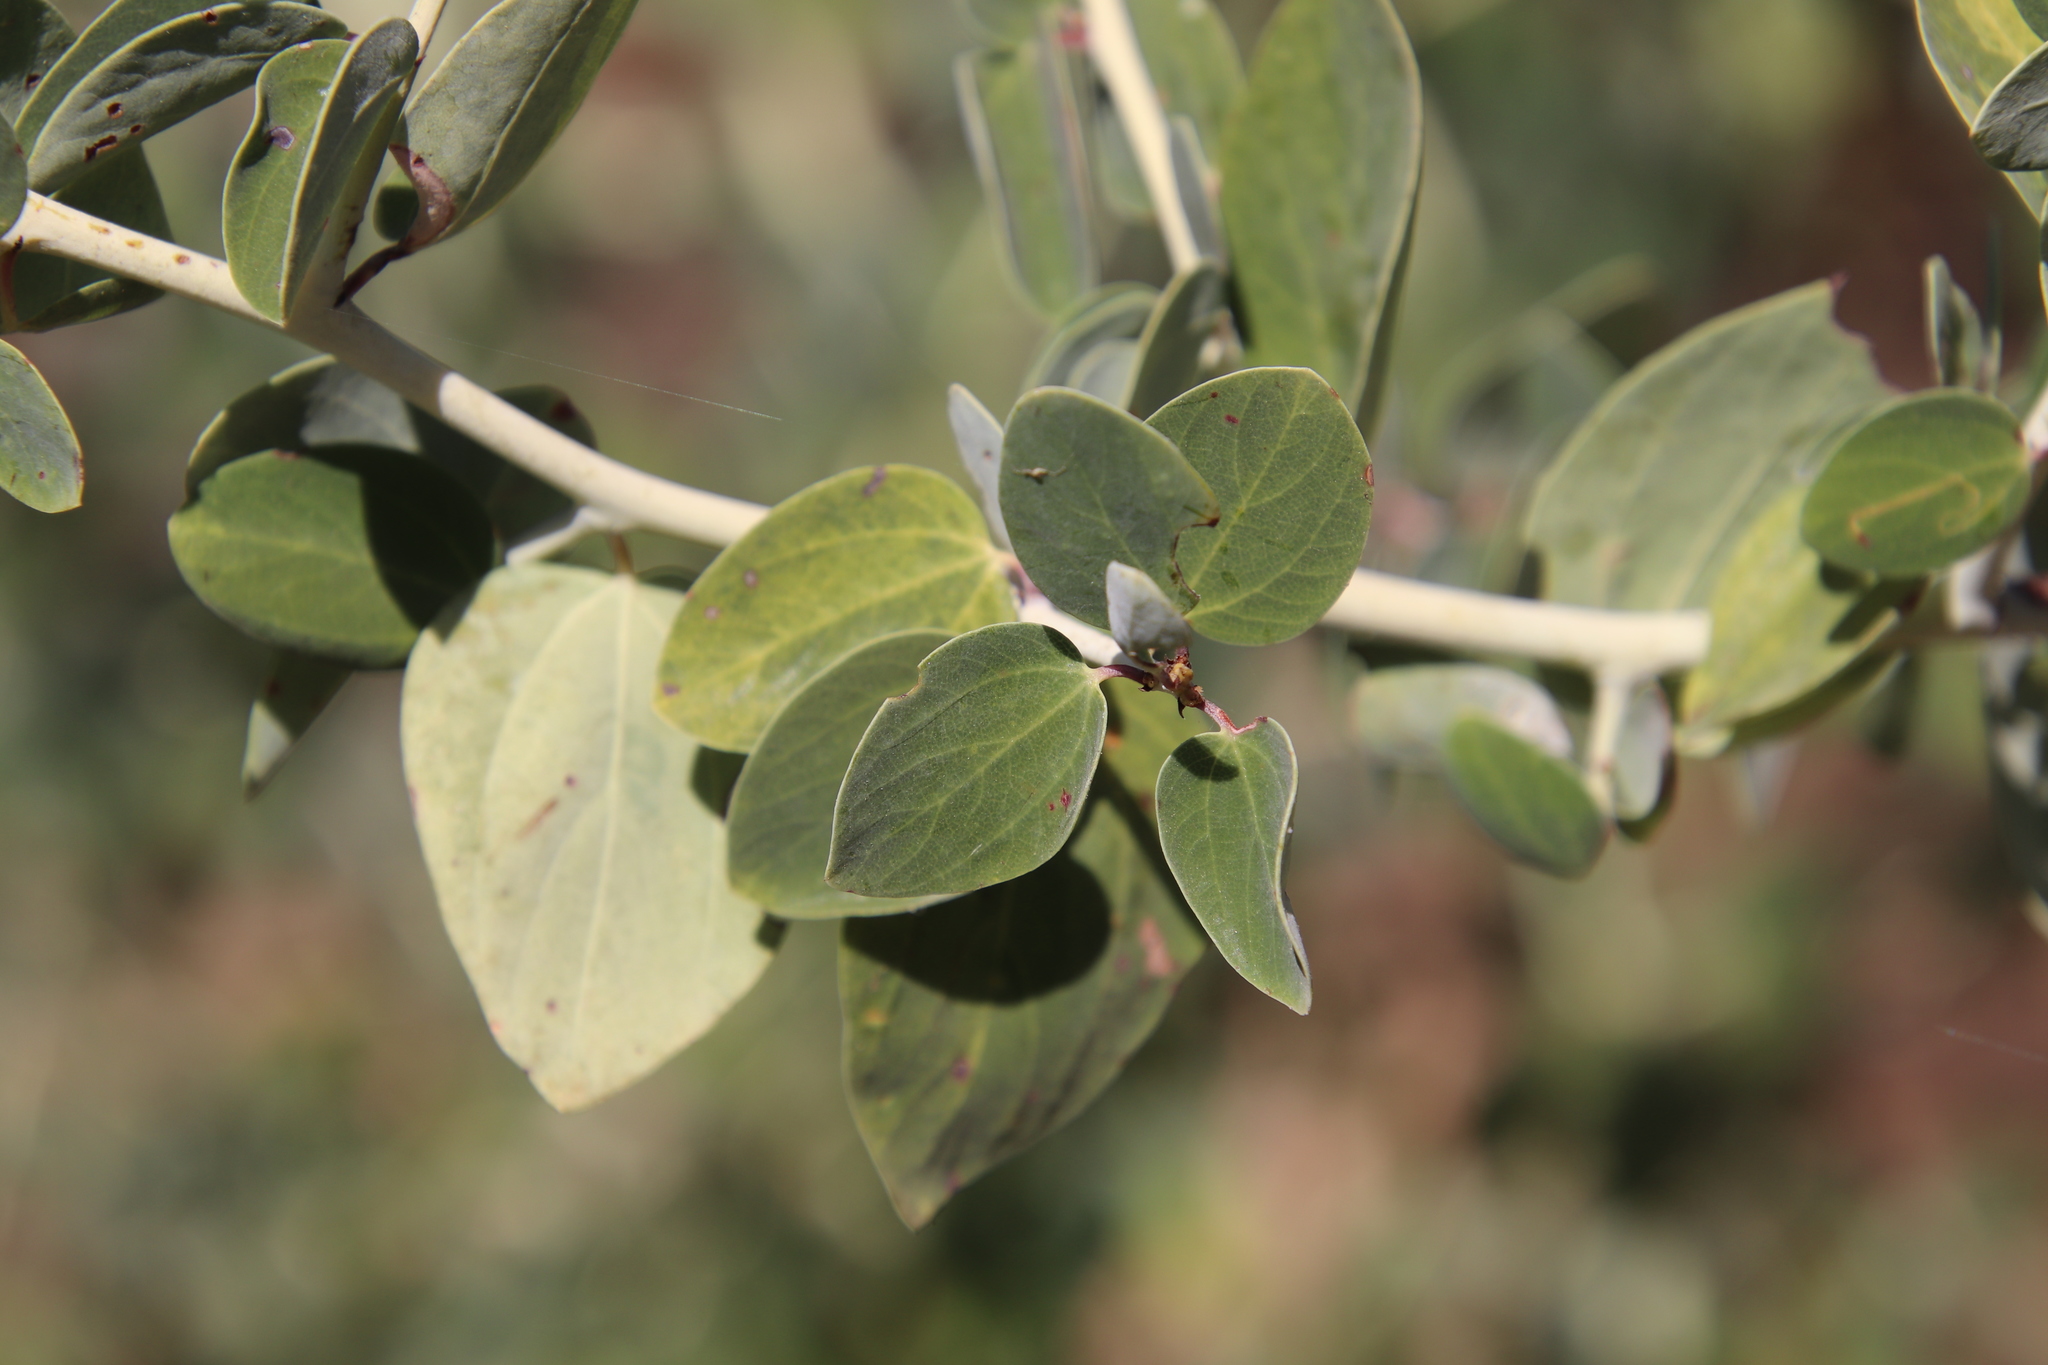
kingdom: Plantae
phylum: Tracheophyta
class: Magnoliopsida
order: Rosales
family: Rhamnaceae
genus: Ceanothus
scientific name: Ceanothus leucodermis
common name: Chaparral whitethorn
